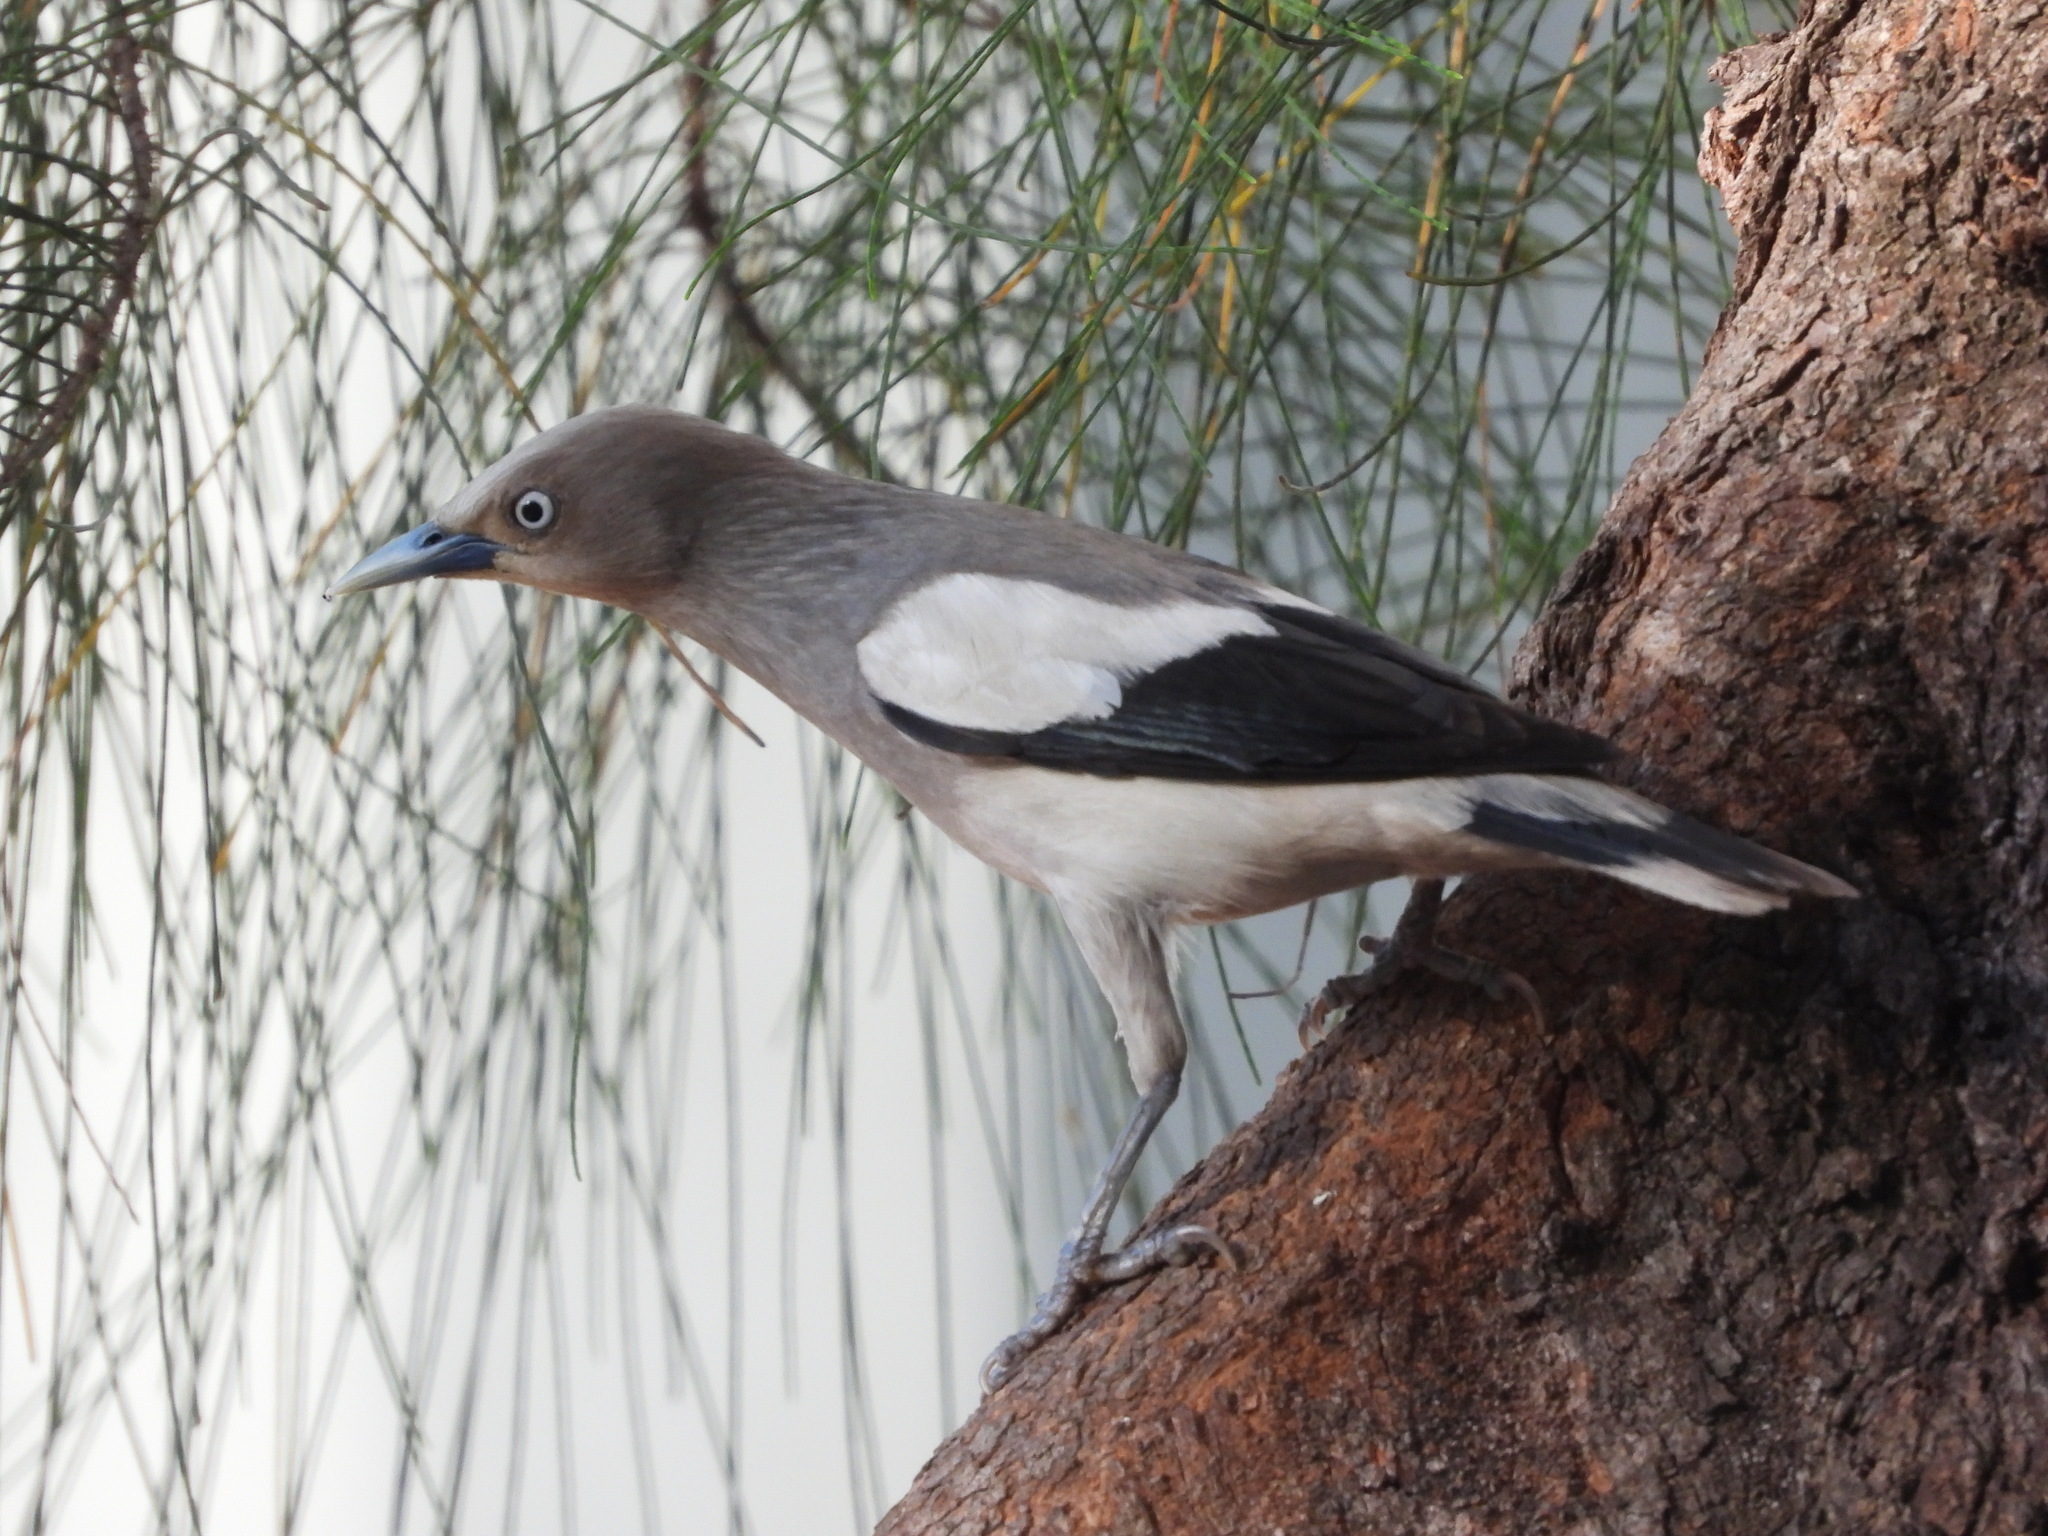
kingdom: Animalia
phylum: Chordata
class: Aves
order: Passeriformes
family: Sturnidae
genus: Sturnia
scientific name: Sturnia sinensis
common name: White-shouldered starling
